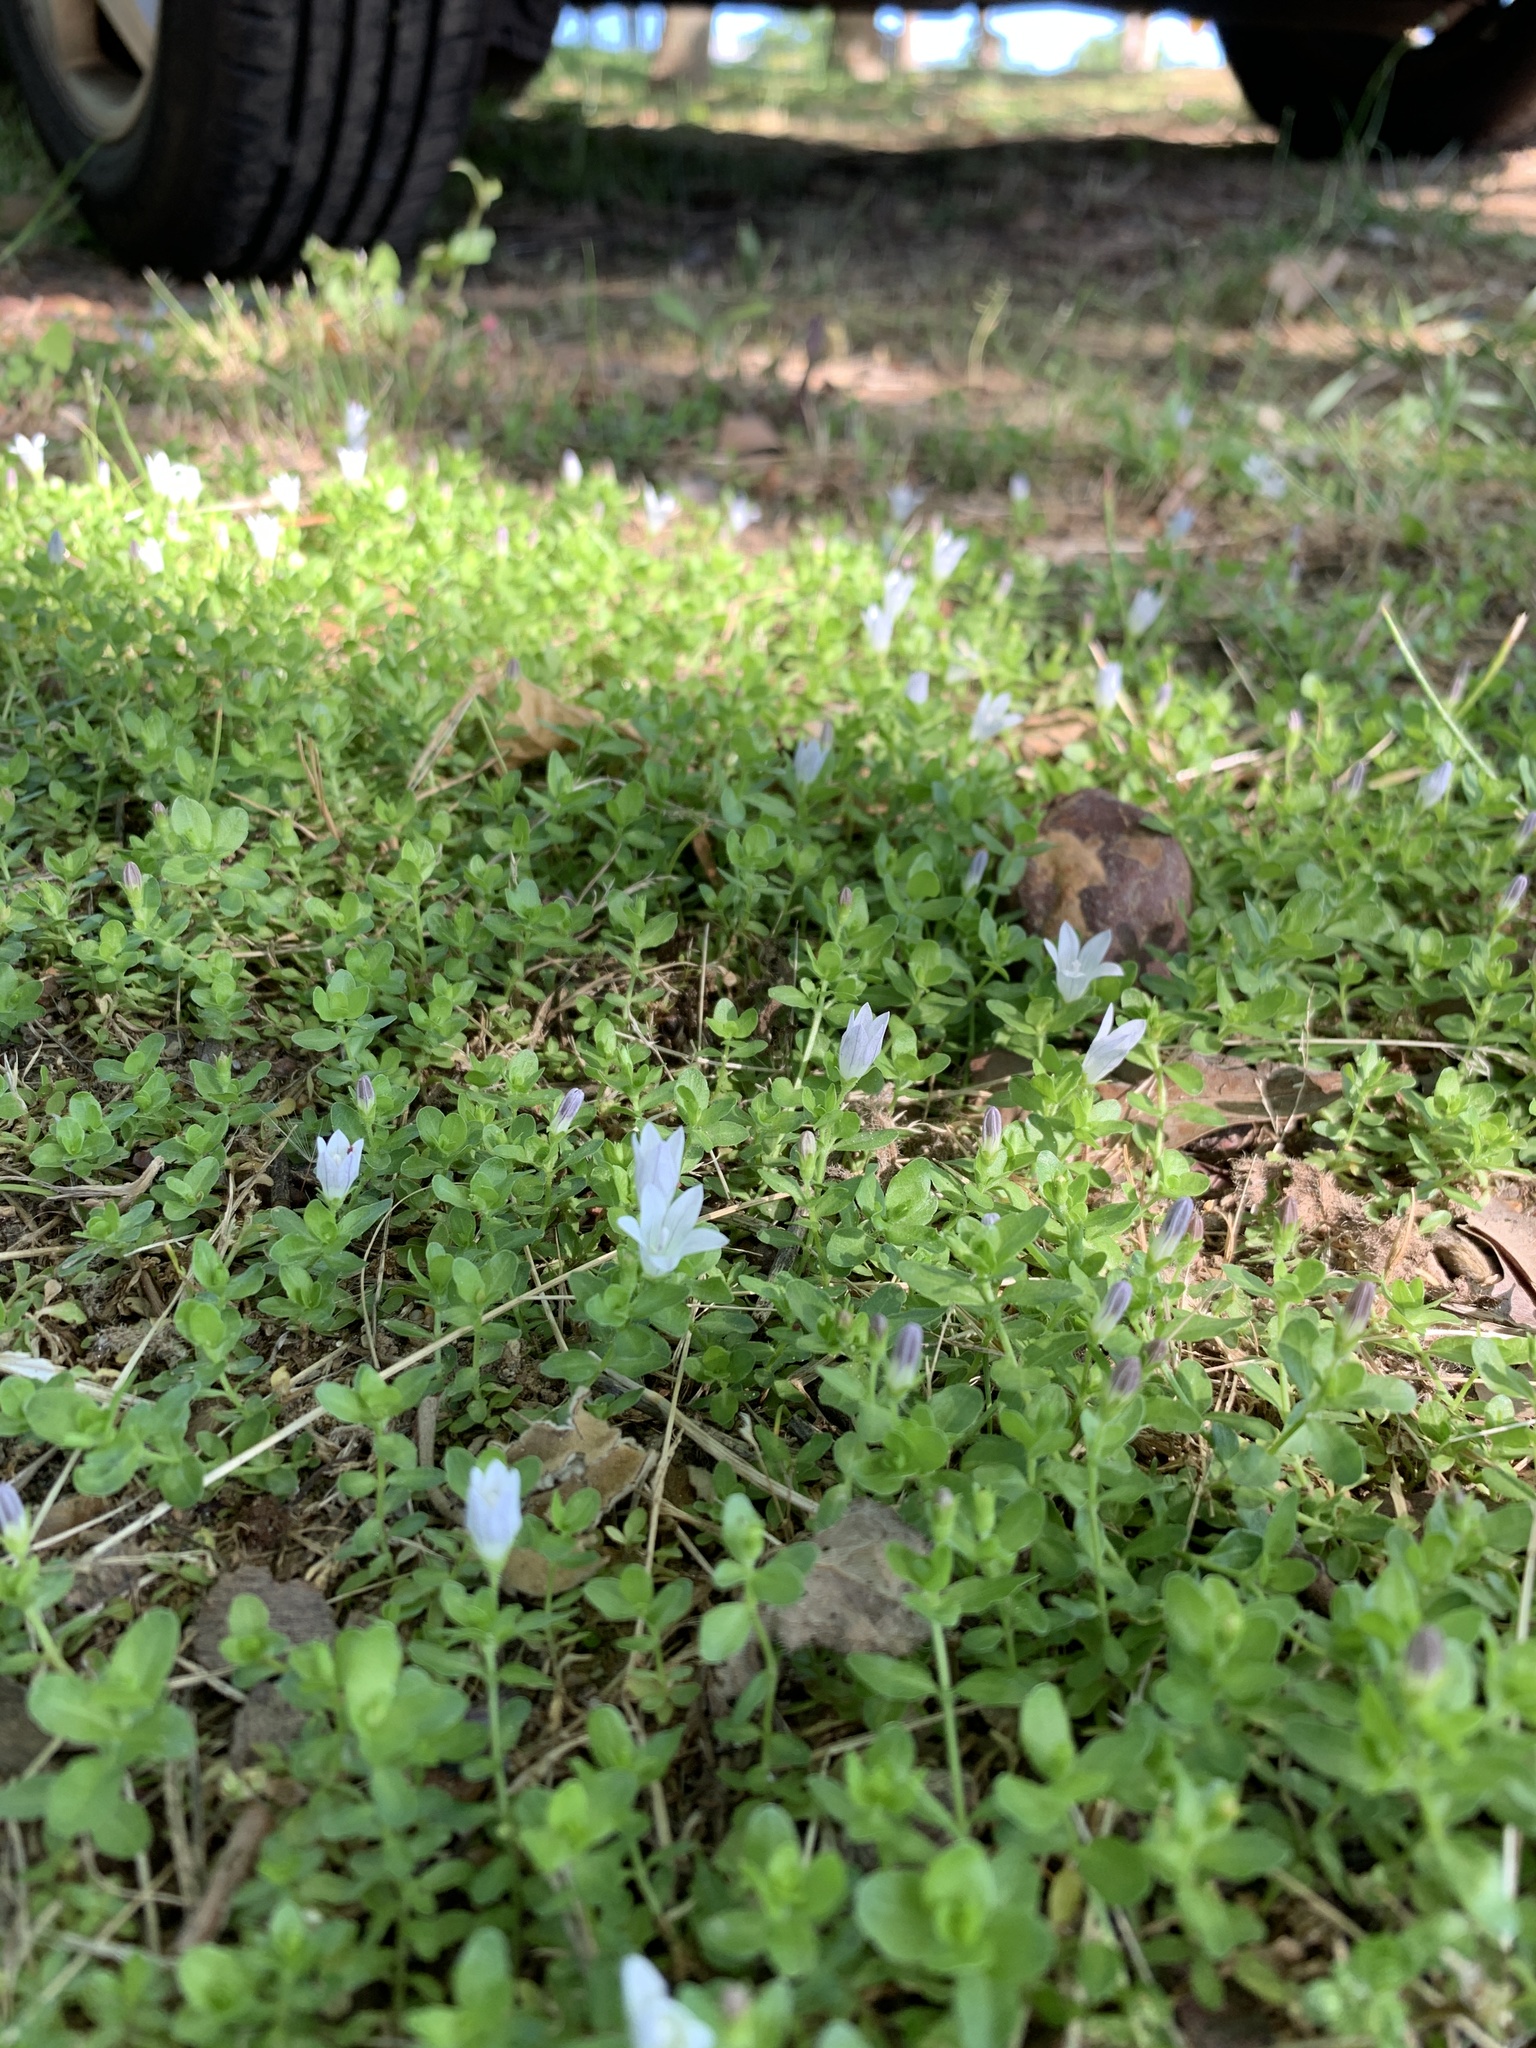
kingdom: Plantae
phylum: Tracheophyta
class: Magnoliopsida
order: Asterales
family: Campanulaceae
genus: Wahlenbergia
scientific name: Wahlenbergia procumbens
